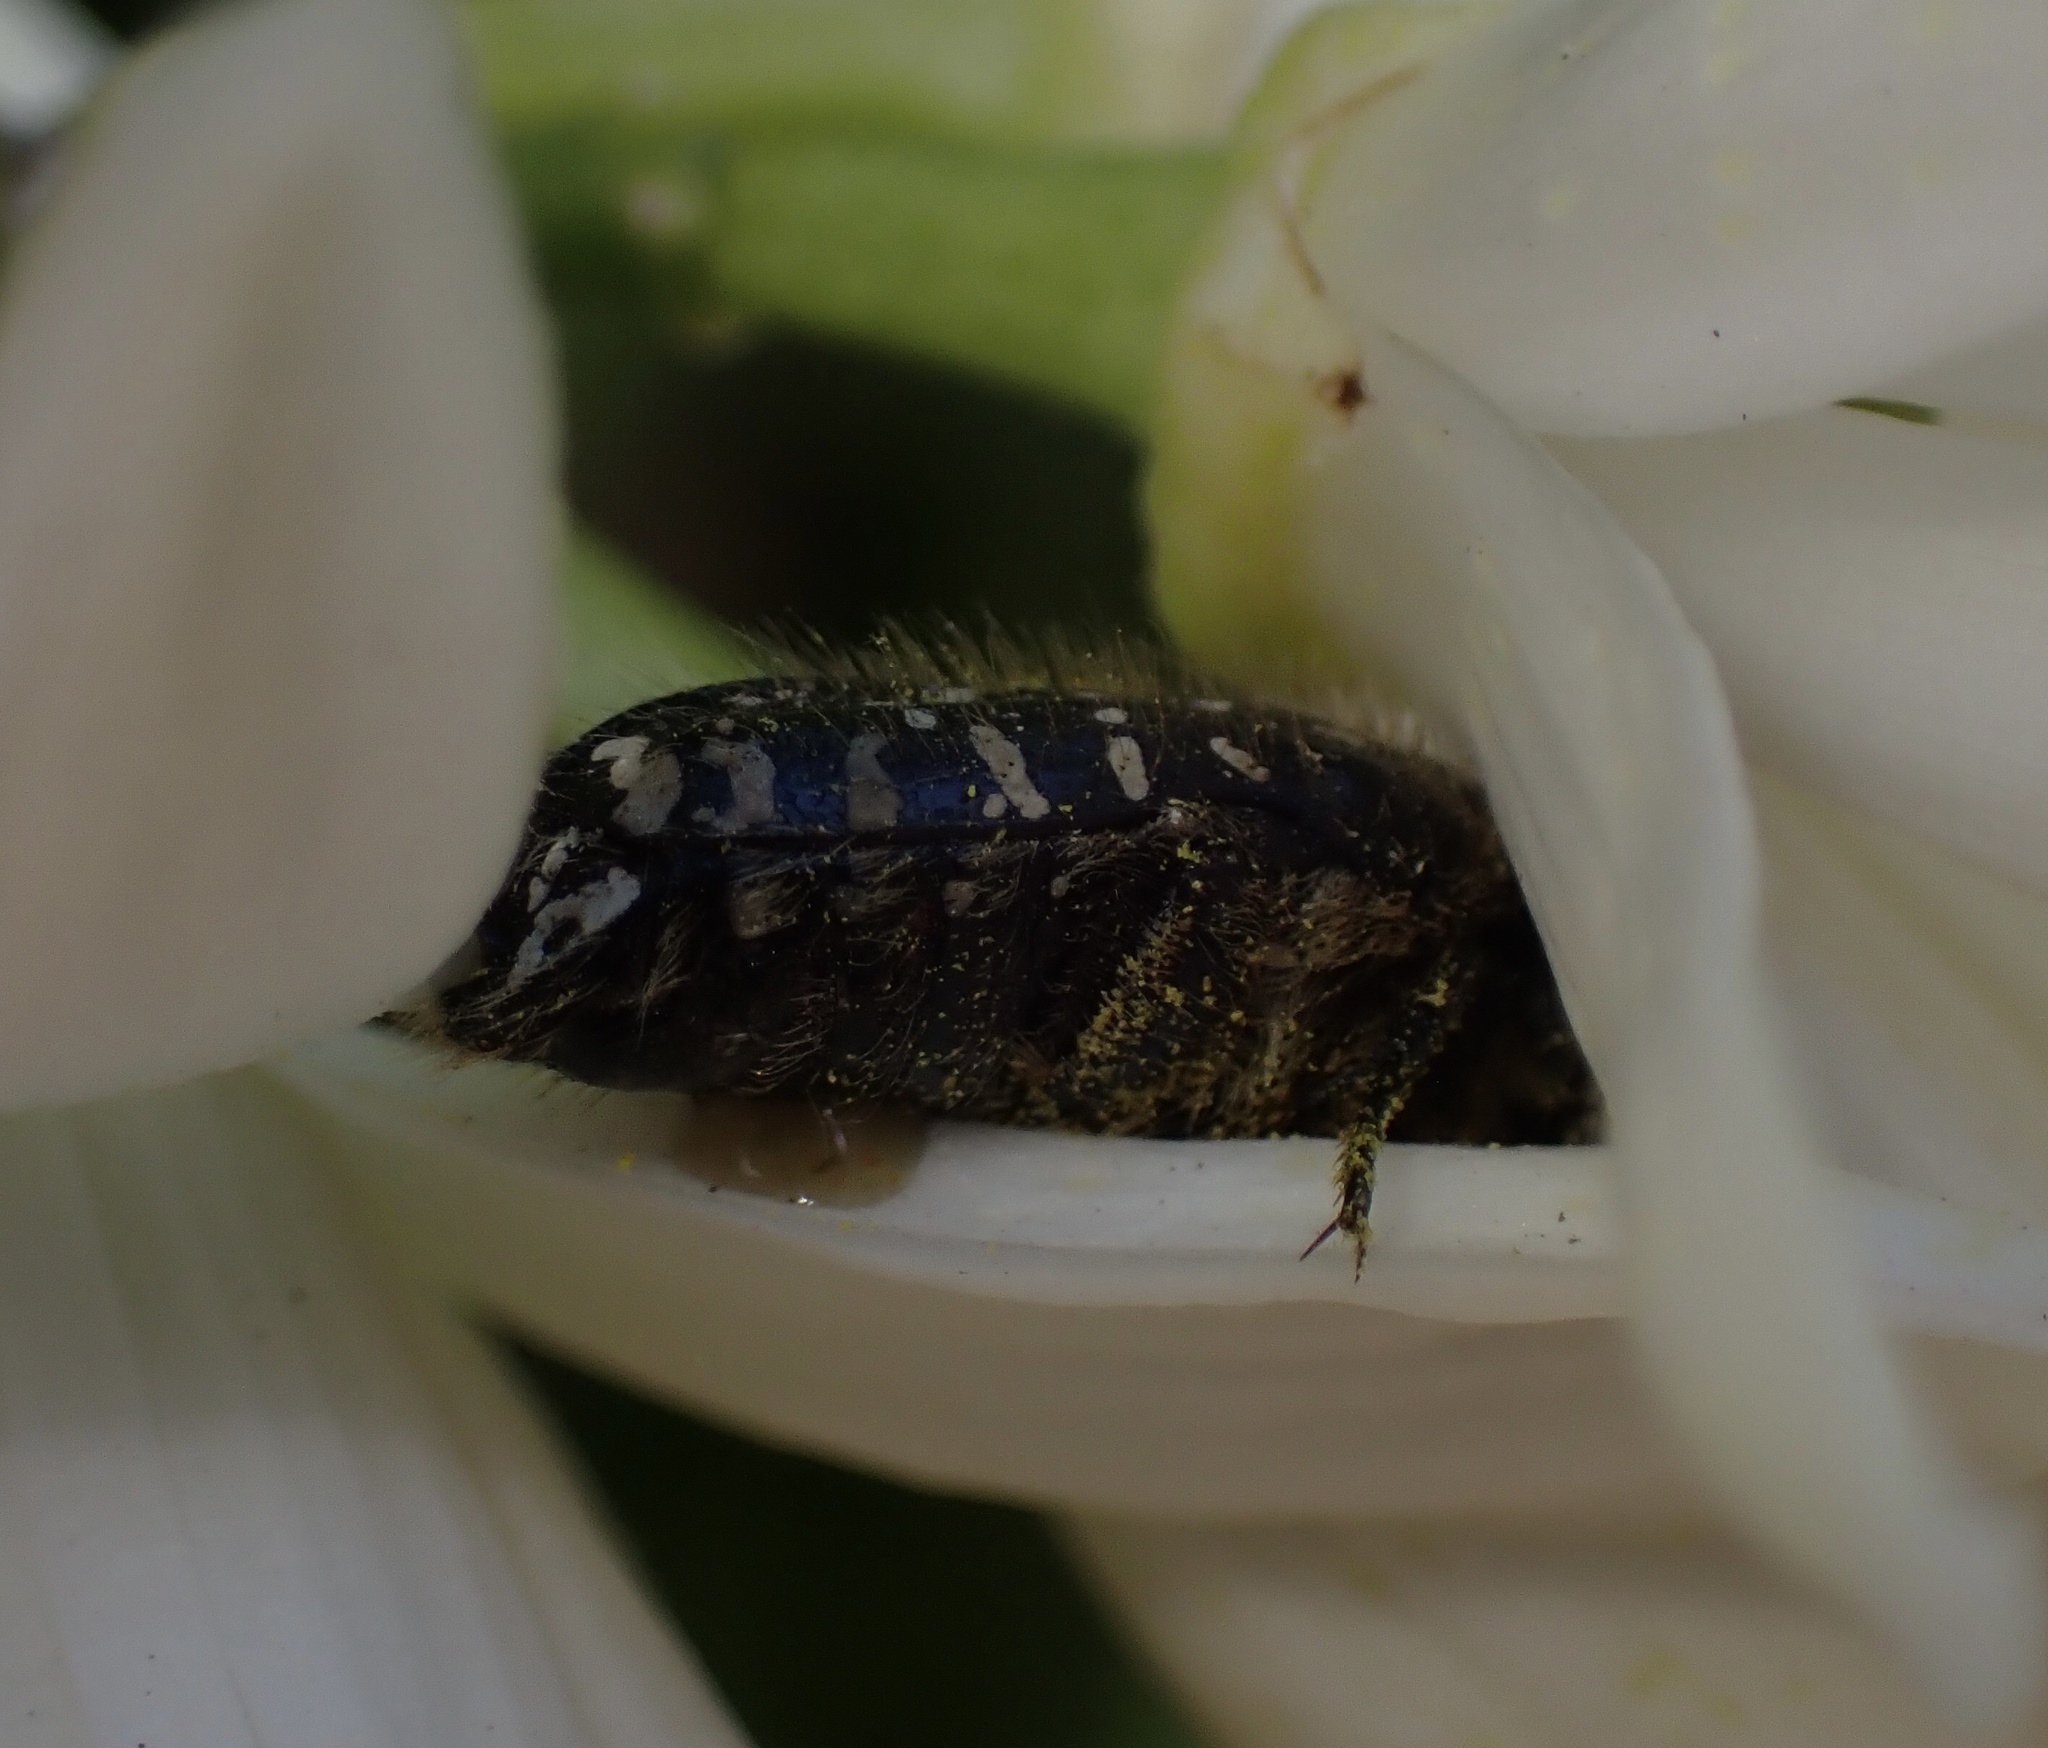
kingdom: Animalia
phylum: Arthropoda
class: Insecta
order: Coleoptera
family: Scarabaeidae
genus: Oxythyrea
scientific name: Oxythyrea funesta
